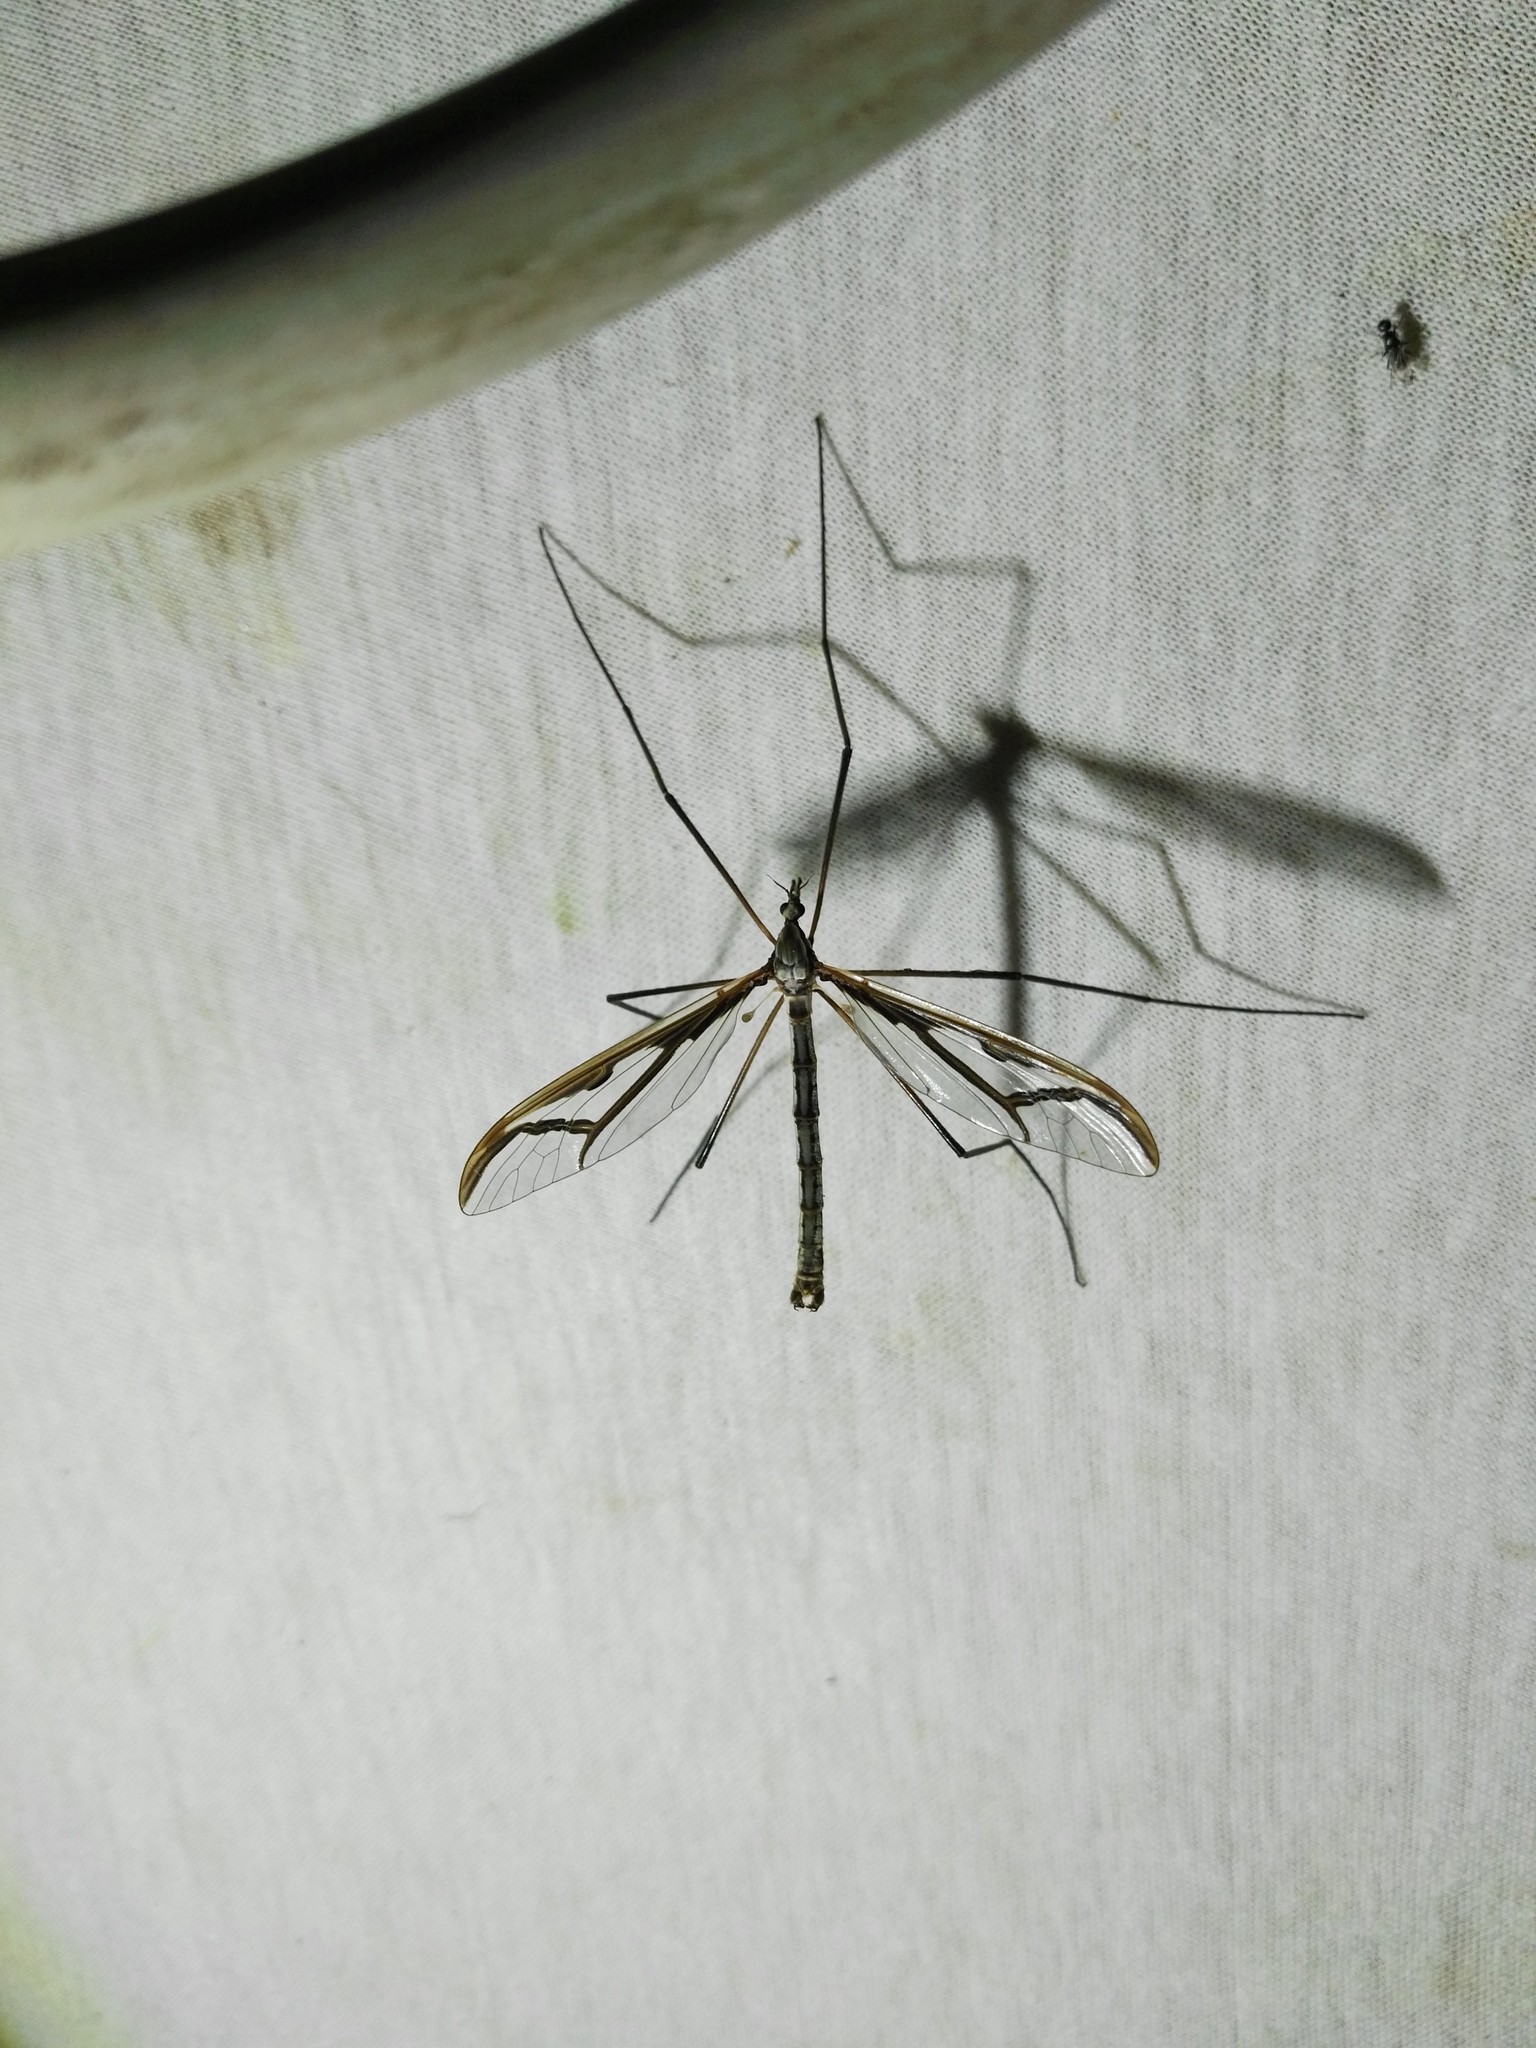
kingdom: Animalia
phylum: Arthropoda
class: Insecta
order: Diptera
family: Pediciidae
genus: Pedicia
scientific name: Pedicia rivosa
